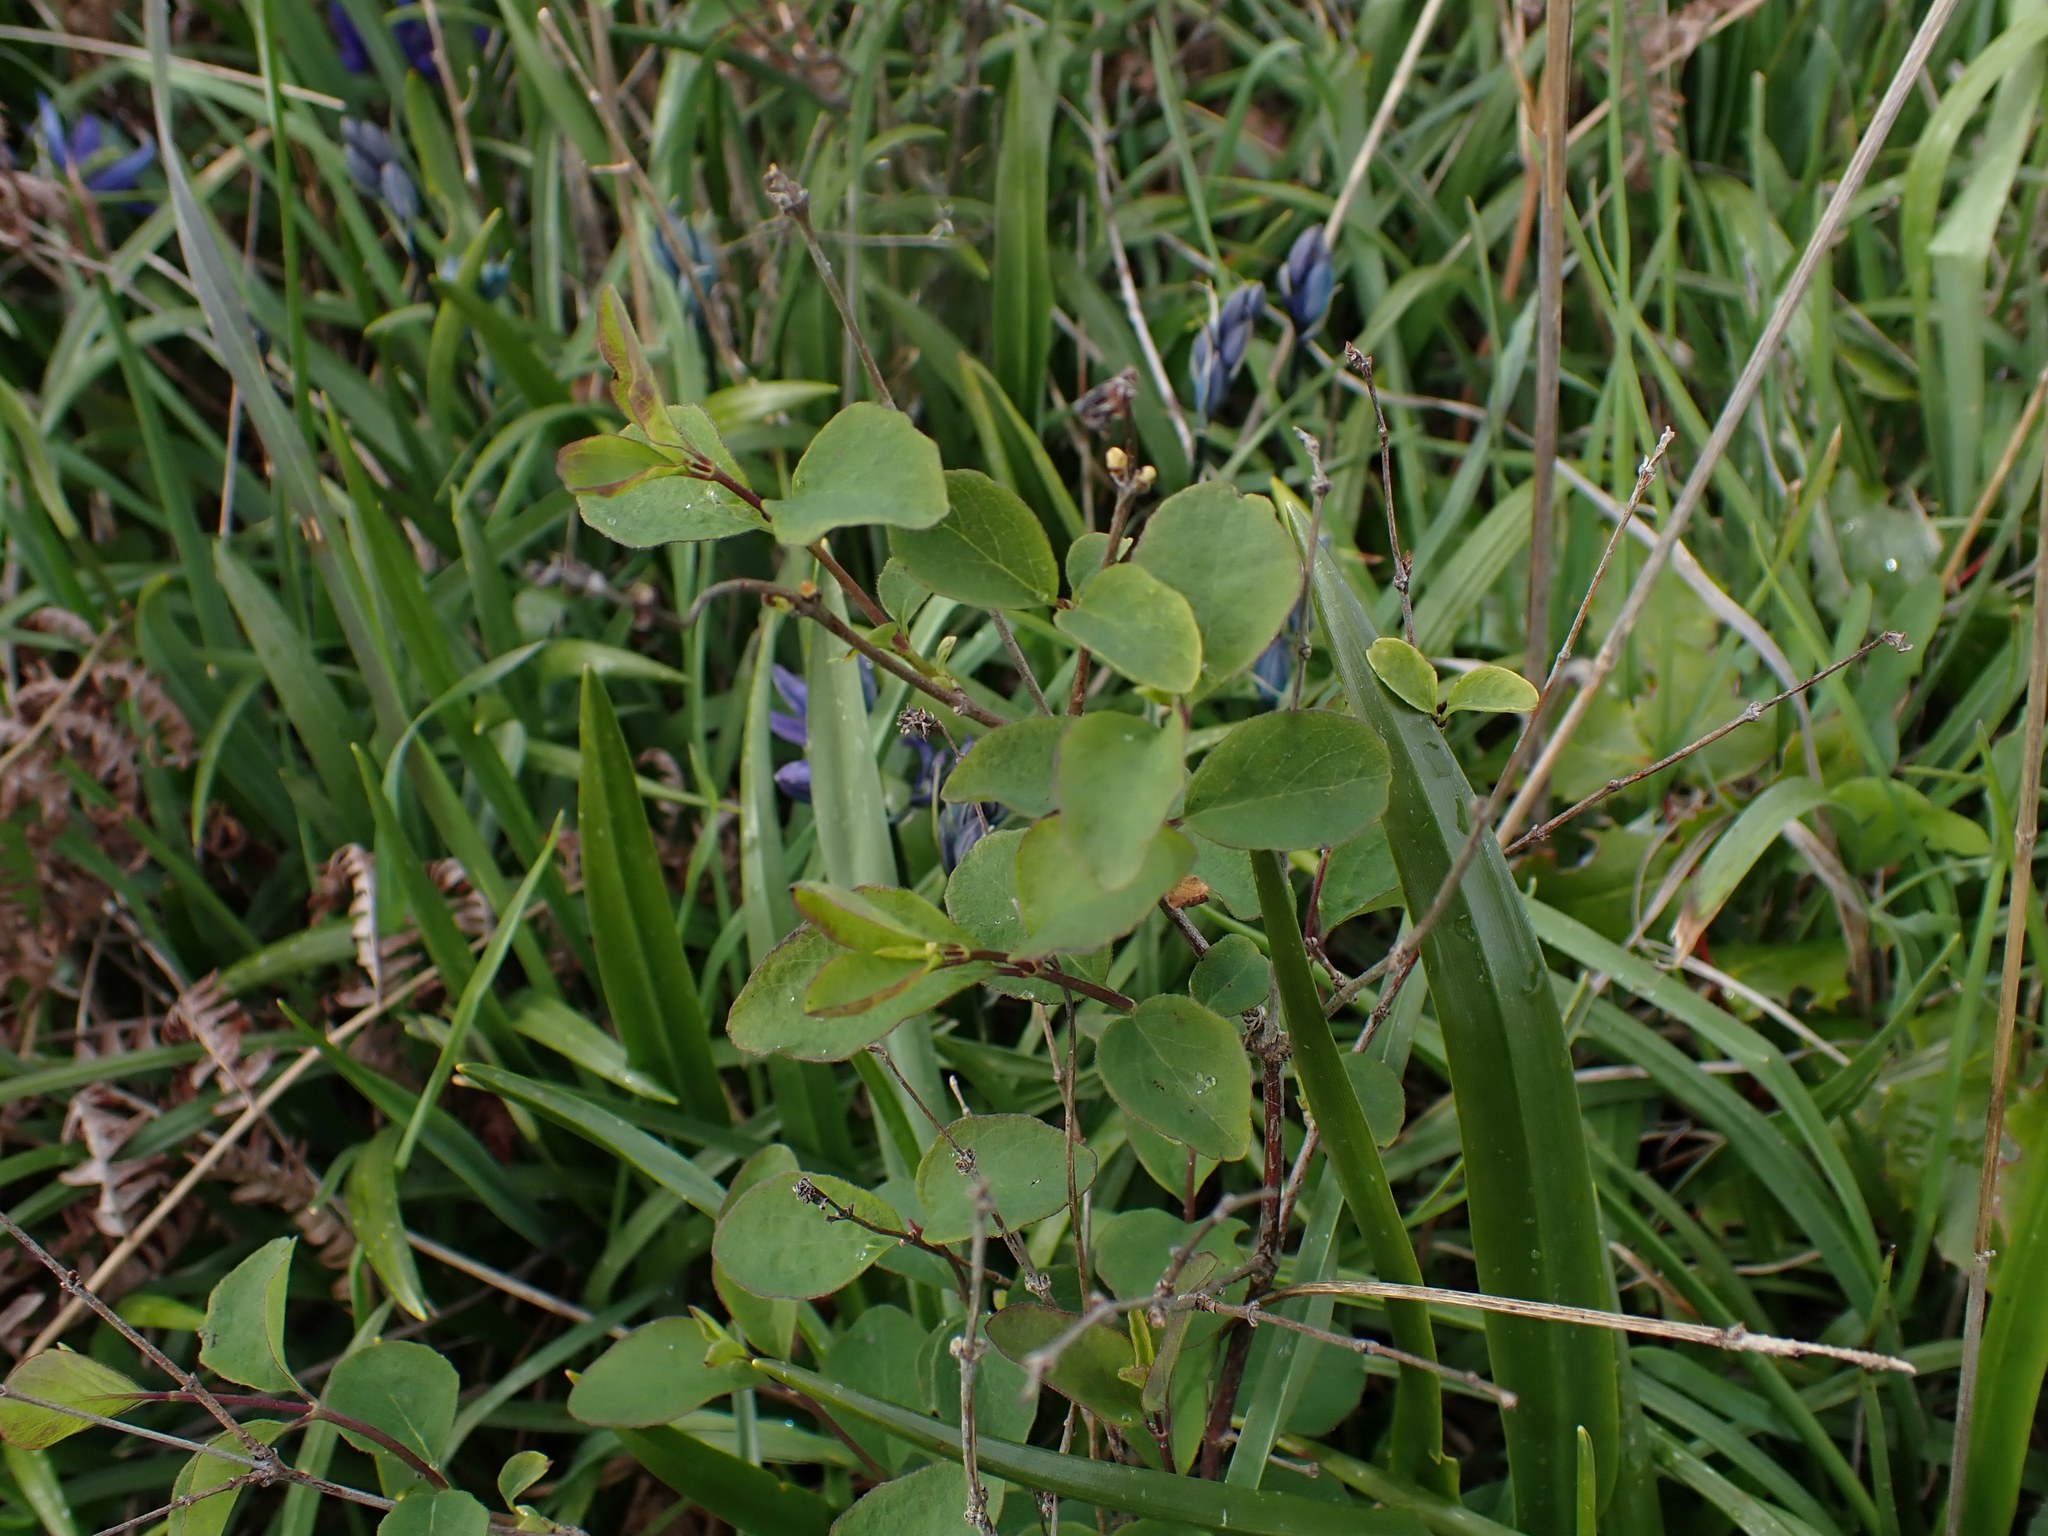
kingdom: Plantae
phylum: Tracheophyta
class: Magnoliopsida
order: Dipsacales
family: Caprifoliaceae
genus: Symphoricarpos
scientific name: Symphoricarpos albus
